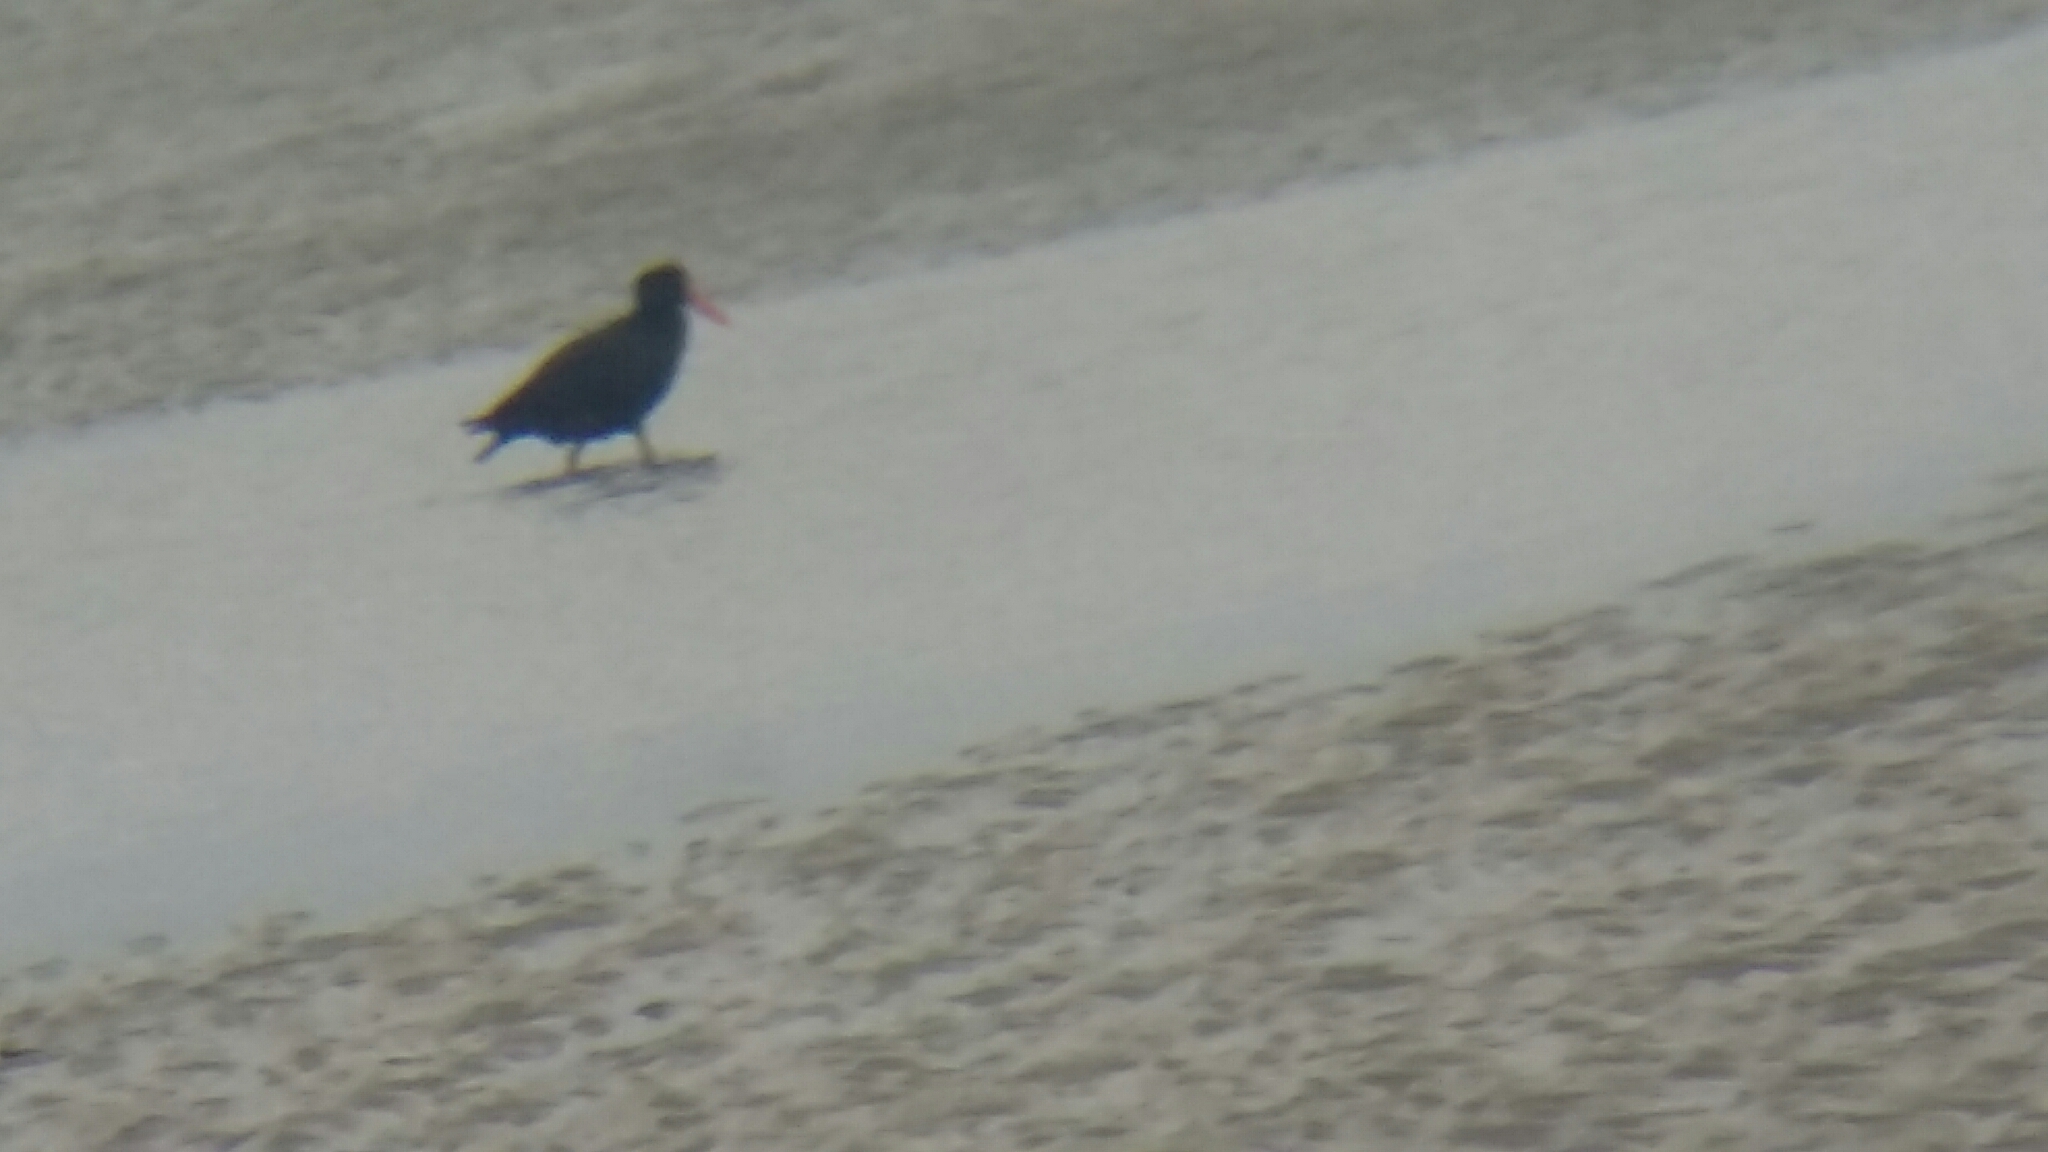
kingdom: Animalia
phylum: Chordata
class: Aves
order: Charadriiformes
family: Haematopodidae
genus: Haematopus
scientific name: Haematopus unicolor
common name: Variable oystercatcher
